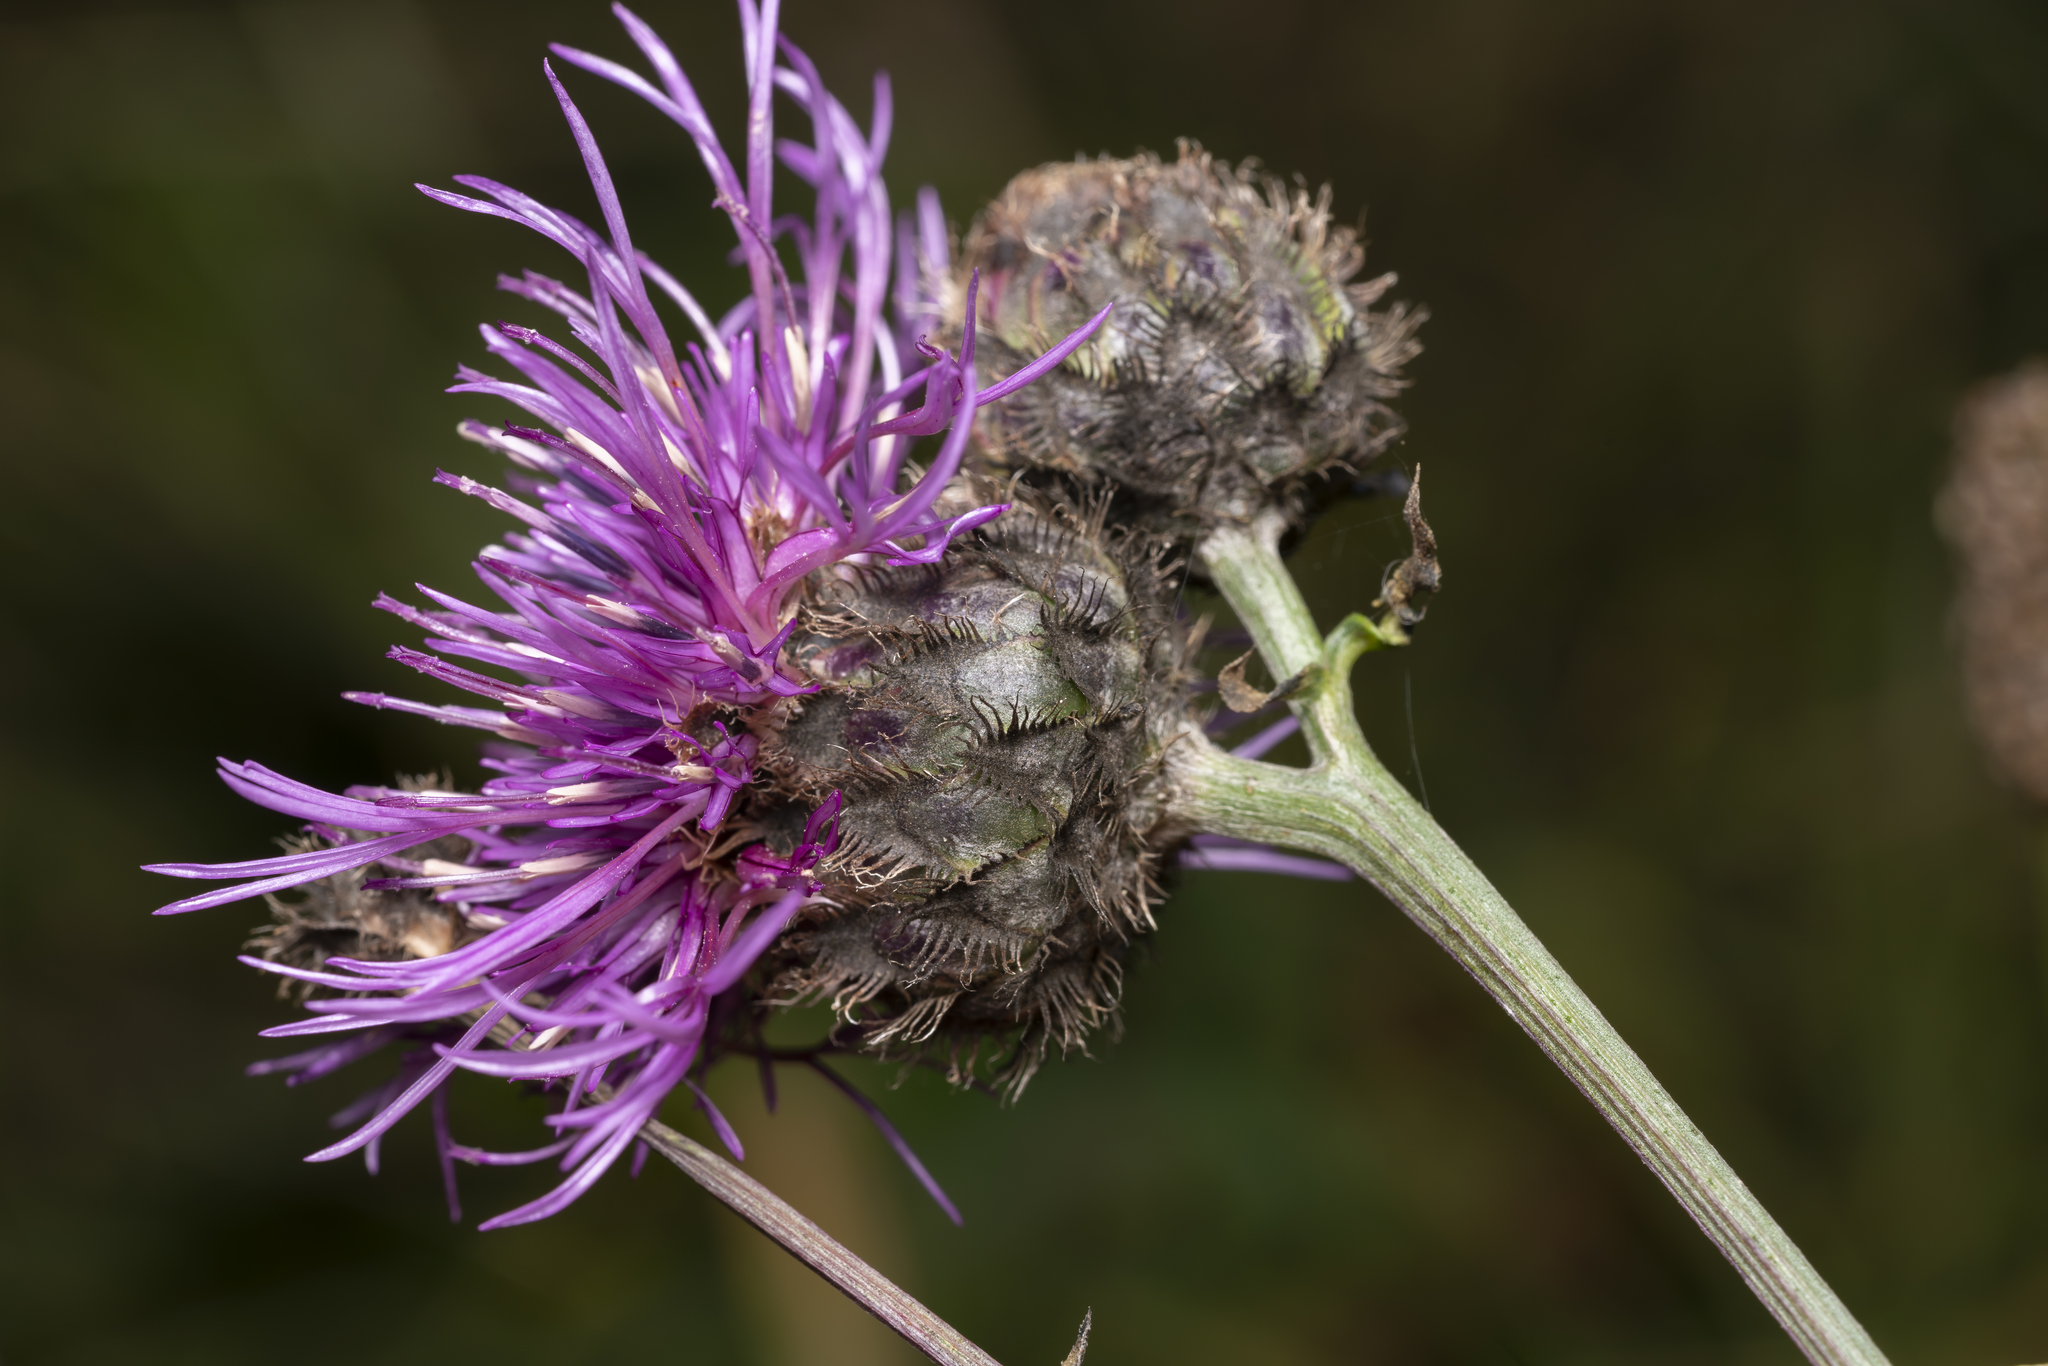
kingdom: Plantae
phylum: Tracheophyta
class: Magnoliopsida
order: Asterales
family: Asteraceae
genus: Centaurea
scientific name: Centaurea scabiosa
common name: Greater knapweed
